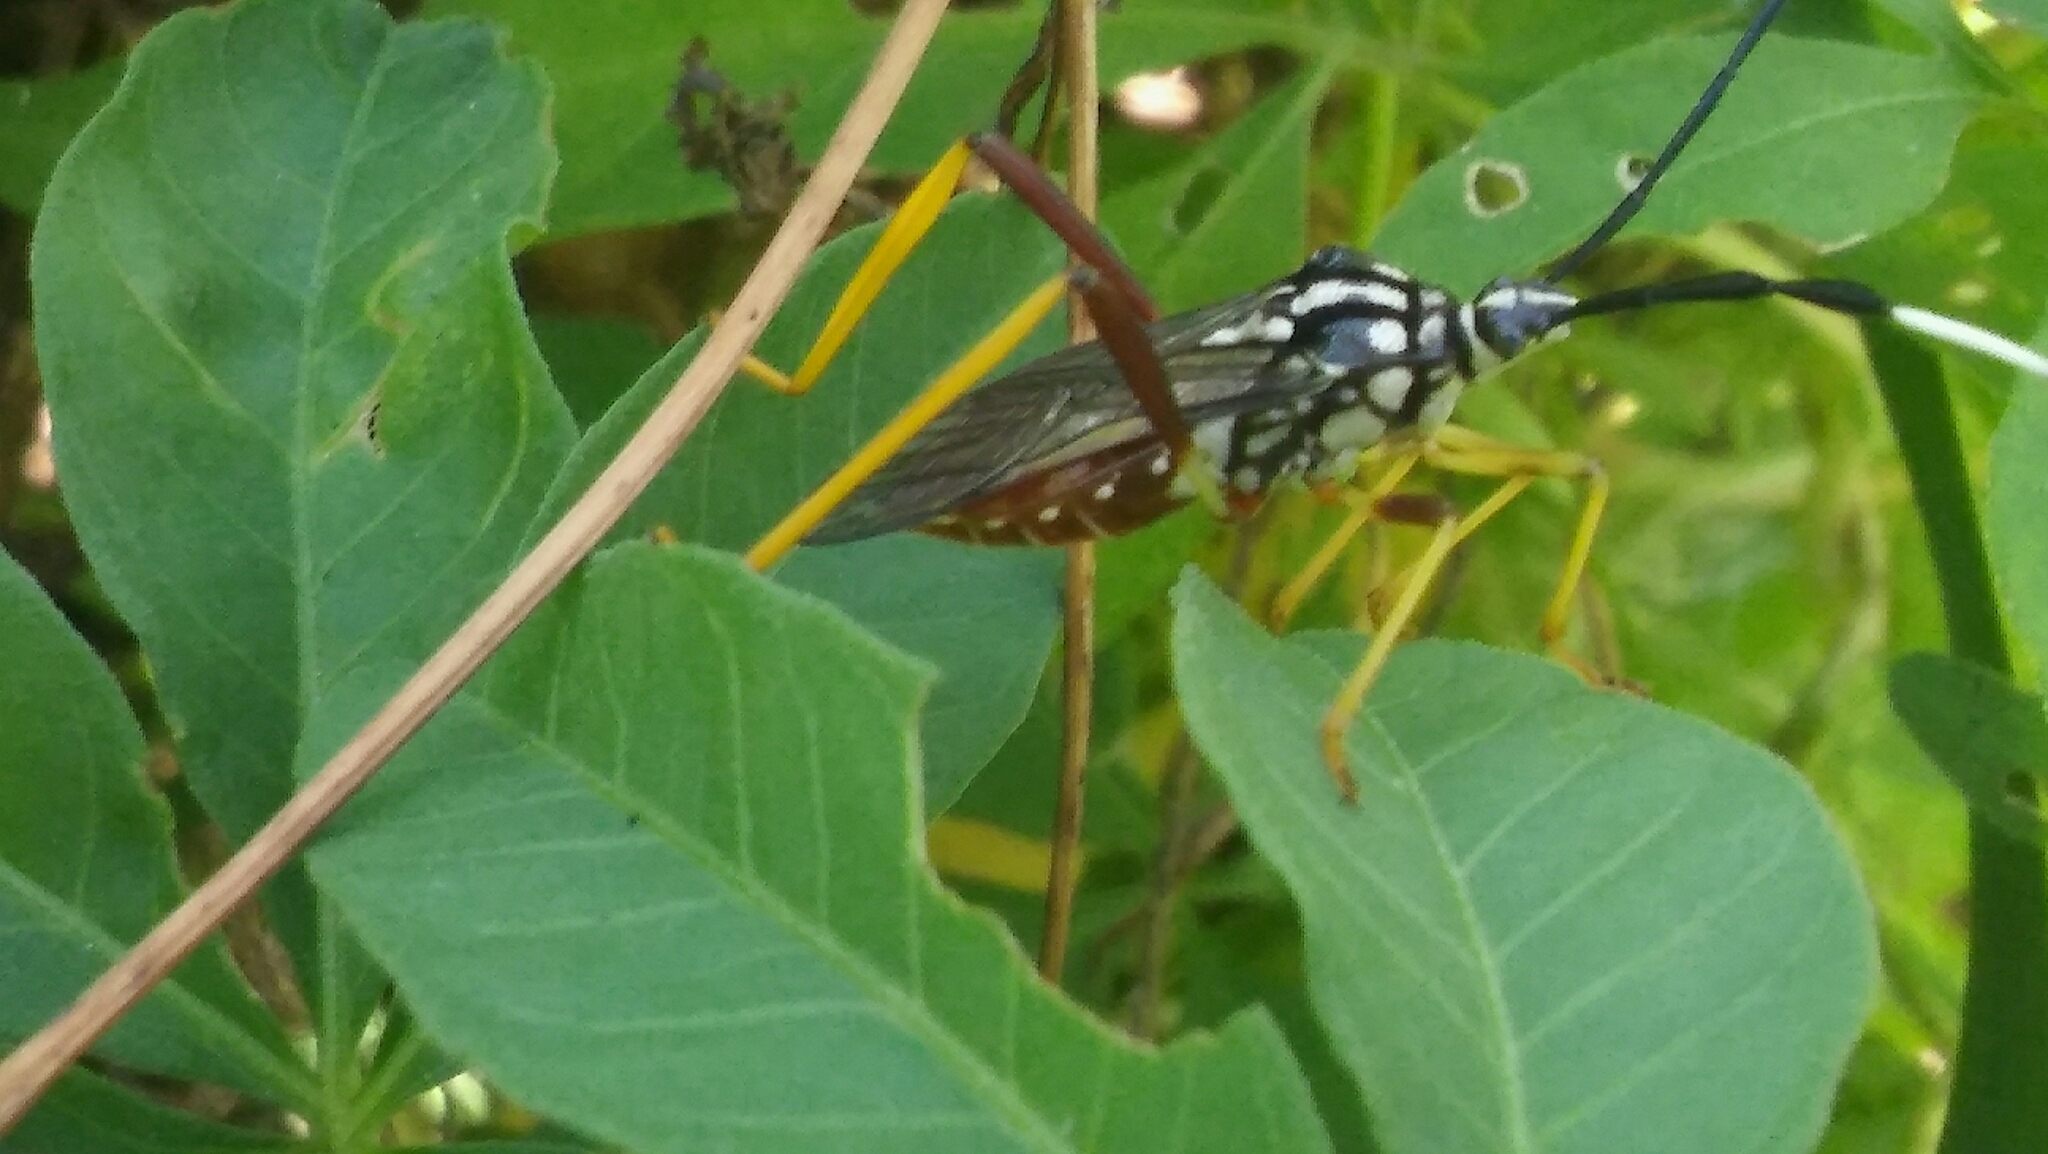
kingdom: Animalia
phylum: Arthropoda
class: Insecta
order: Hemiptera
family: Coreidae
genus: Holhymenia
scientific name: Holhymenia histrio
